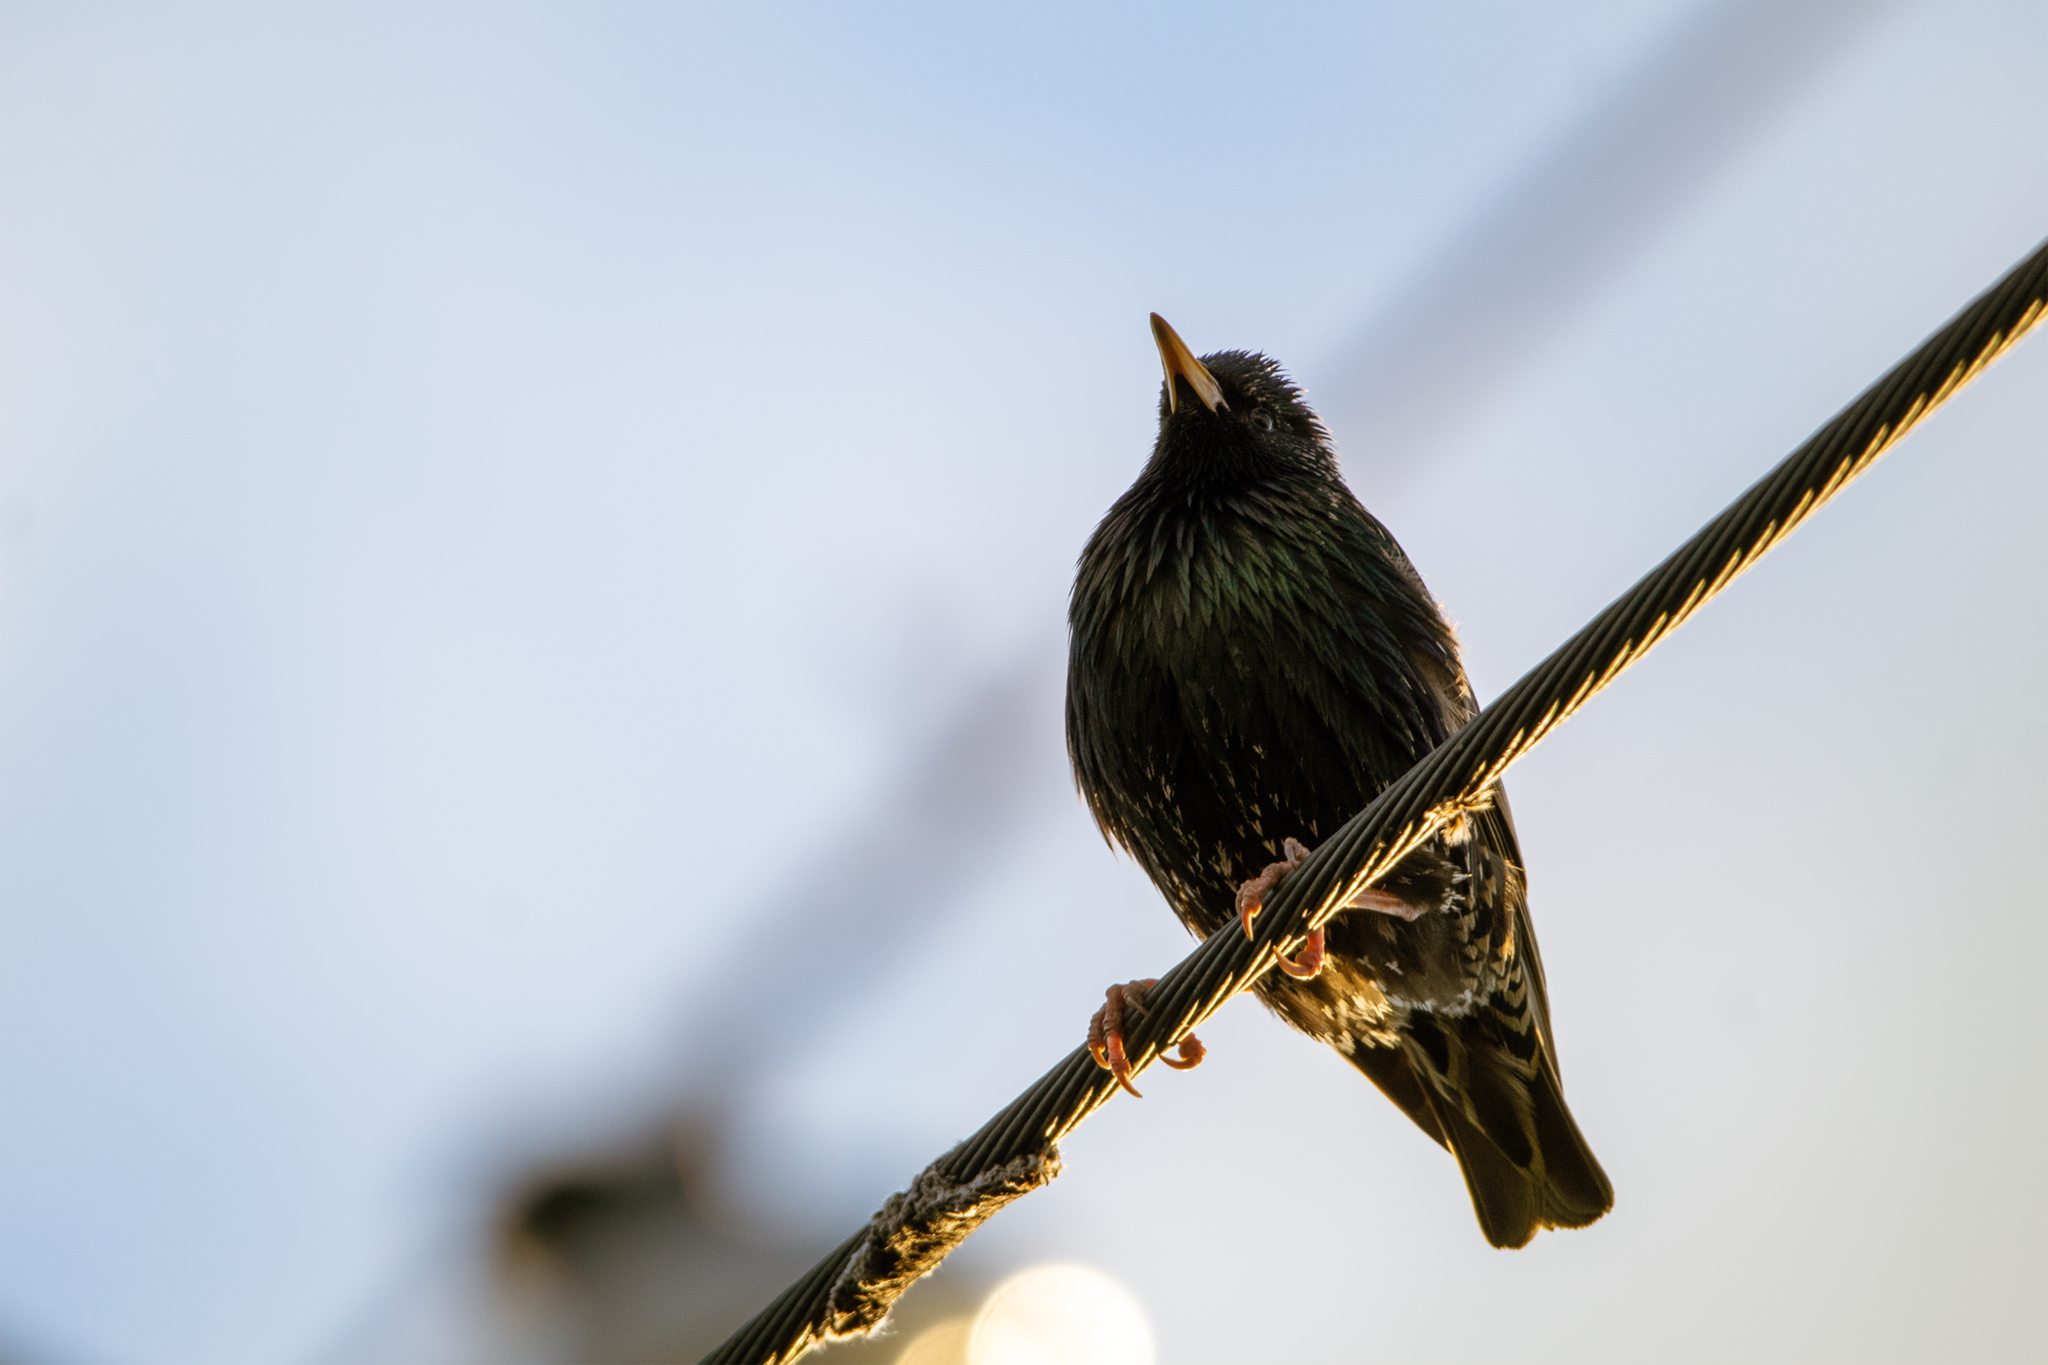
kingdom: Animalia
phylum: Chordata
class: Aves
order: Passeriformes
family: Sturnidae
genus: Sturnus
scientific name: Sturnus vulgaris
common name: Common starling
